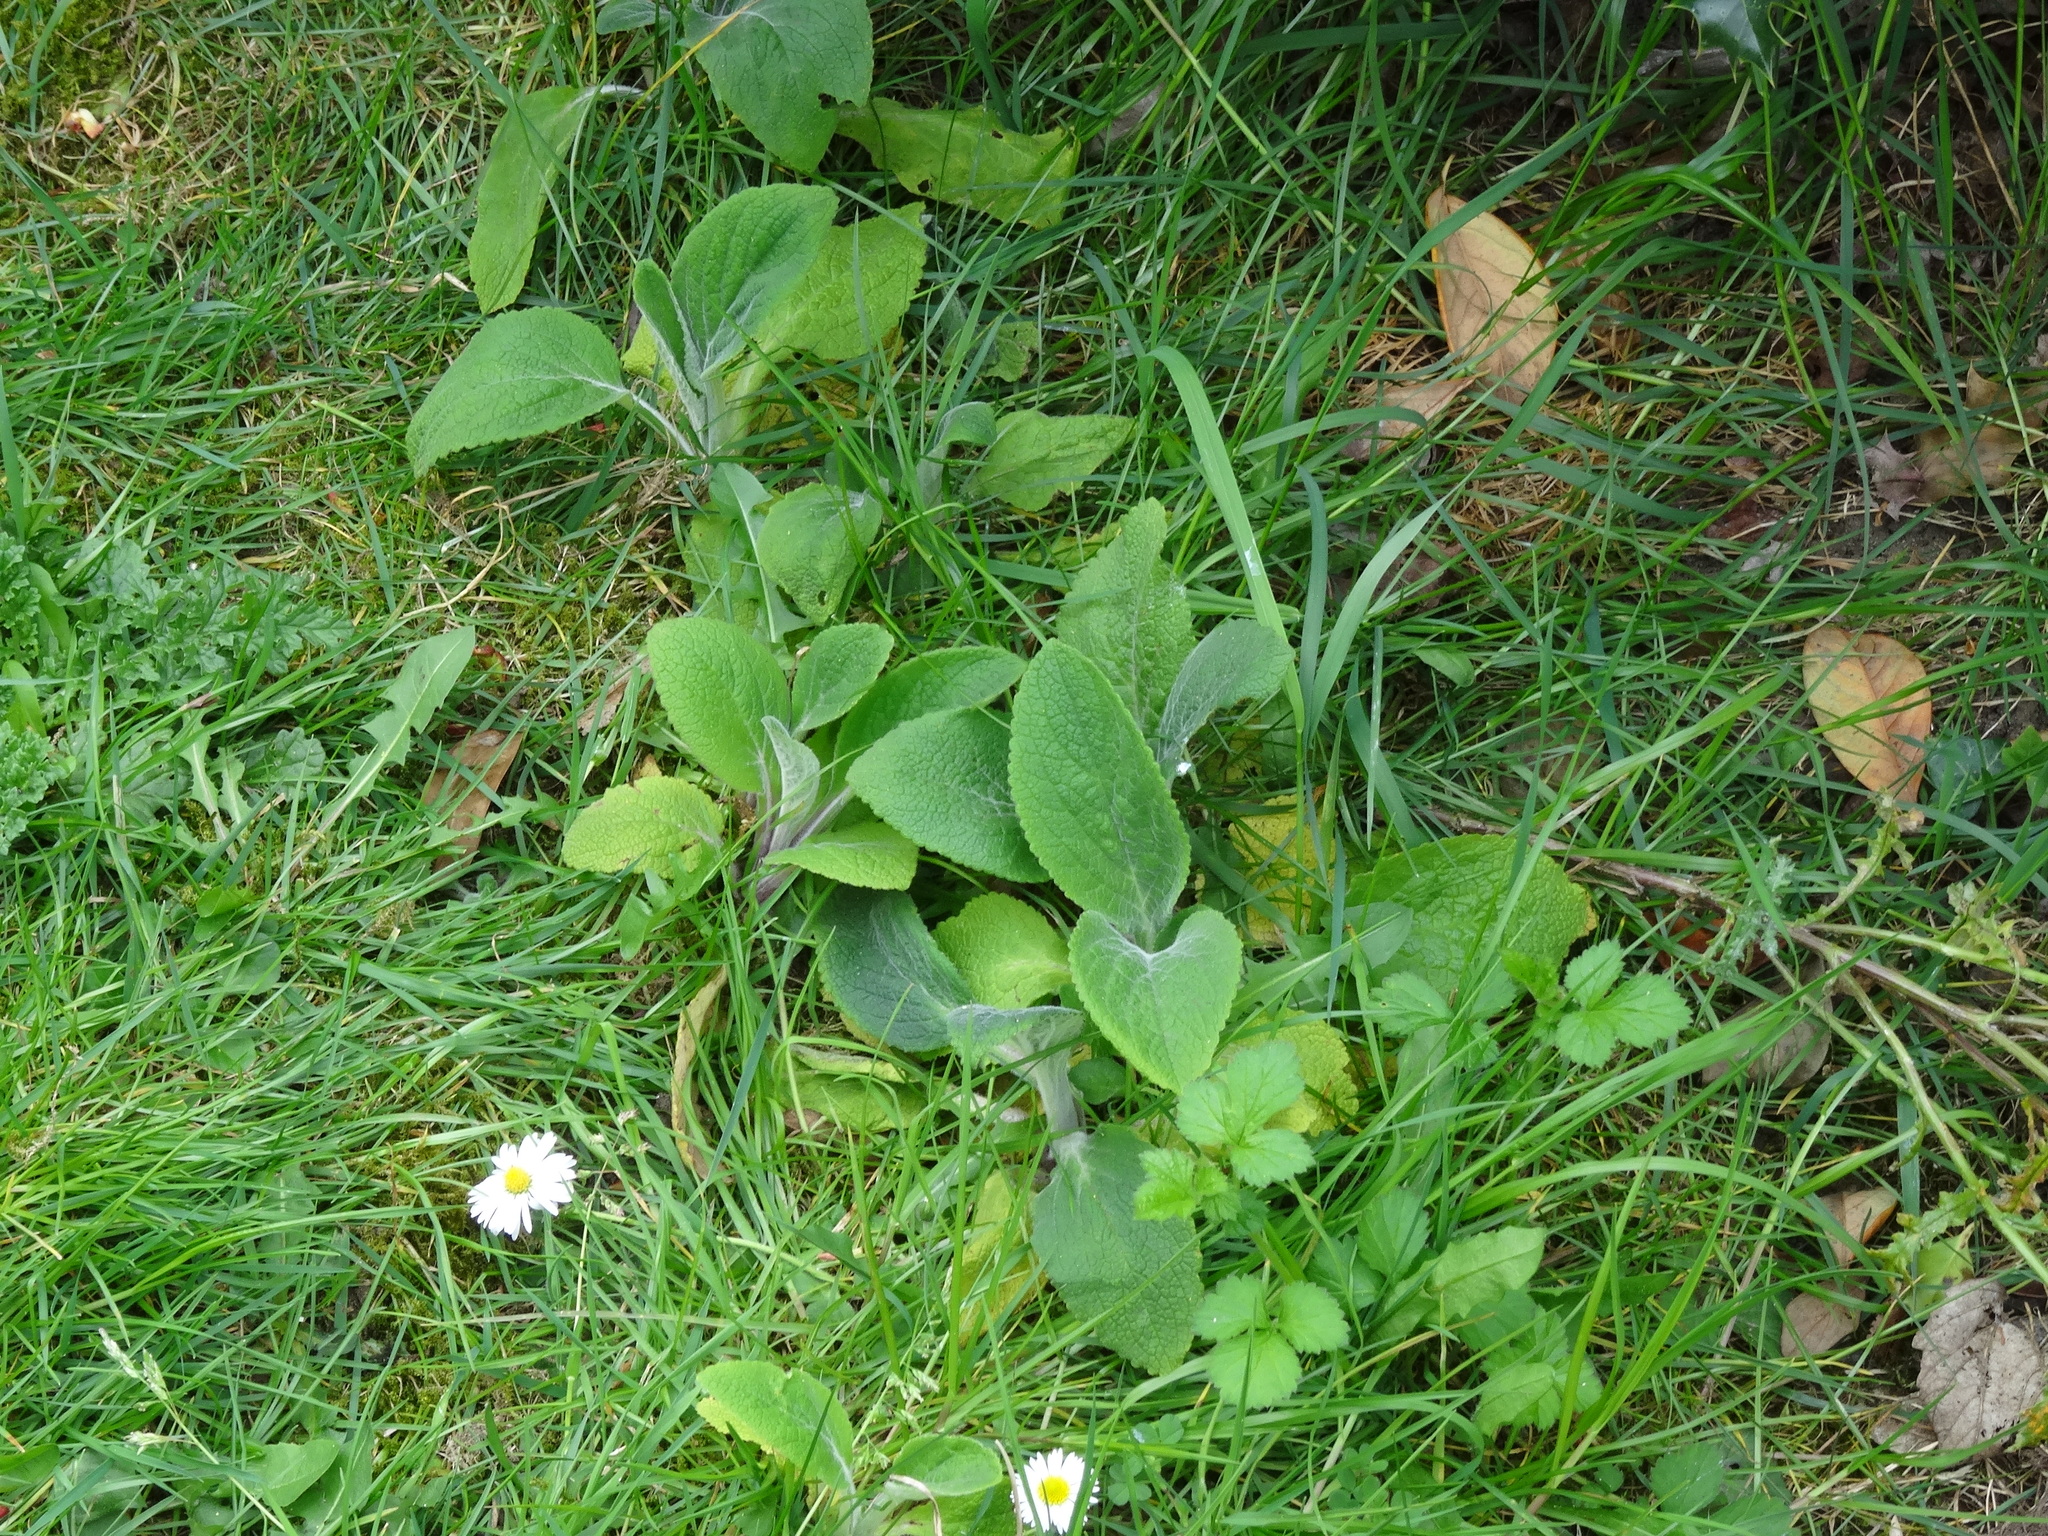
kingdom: Plantae
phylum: Tracheophyta
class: Magnoliopsida
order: Lamiales
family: Plantaginaceae
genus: Digitalis
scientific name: Digitalis purpurea
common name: Foxglove
